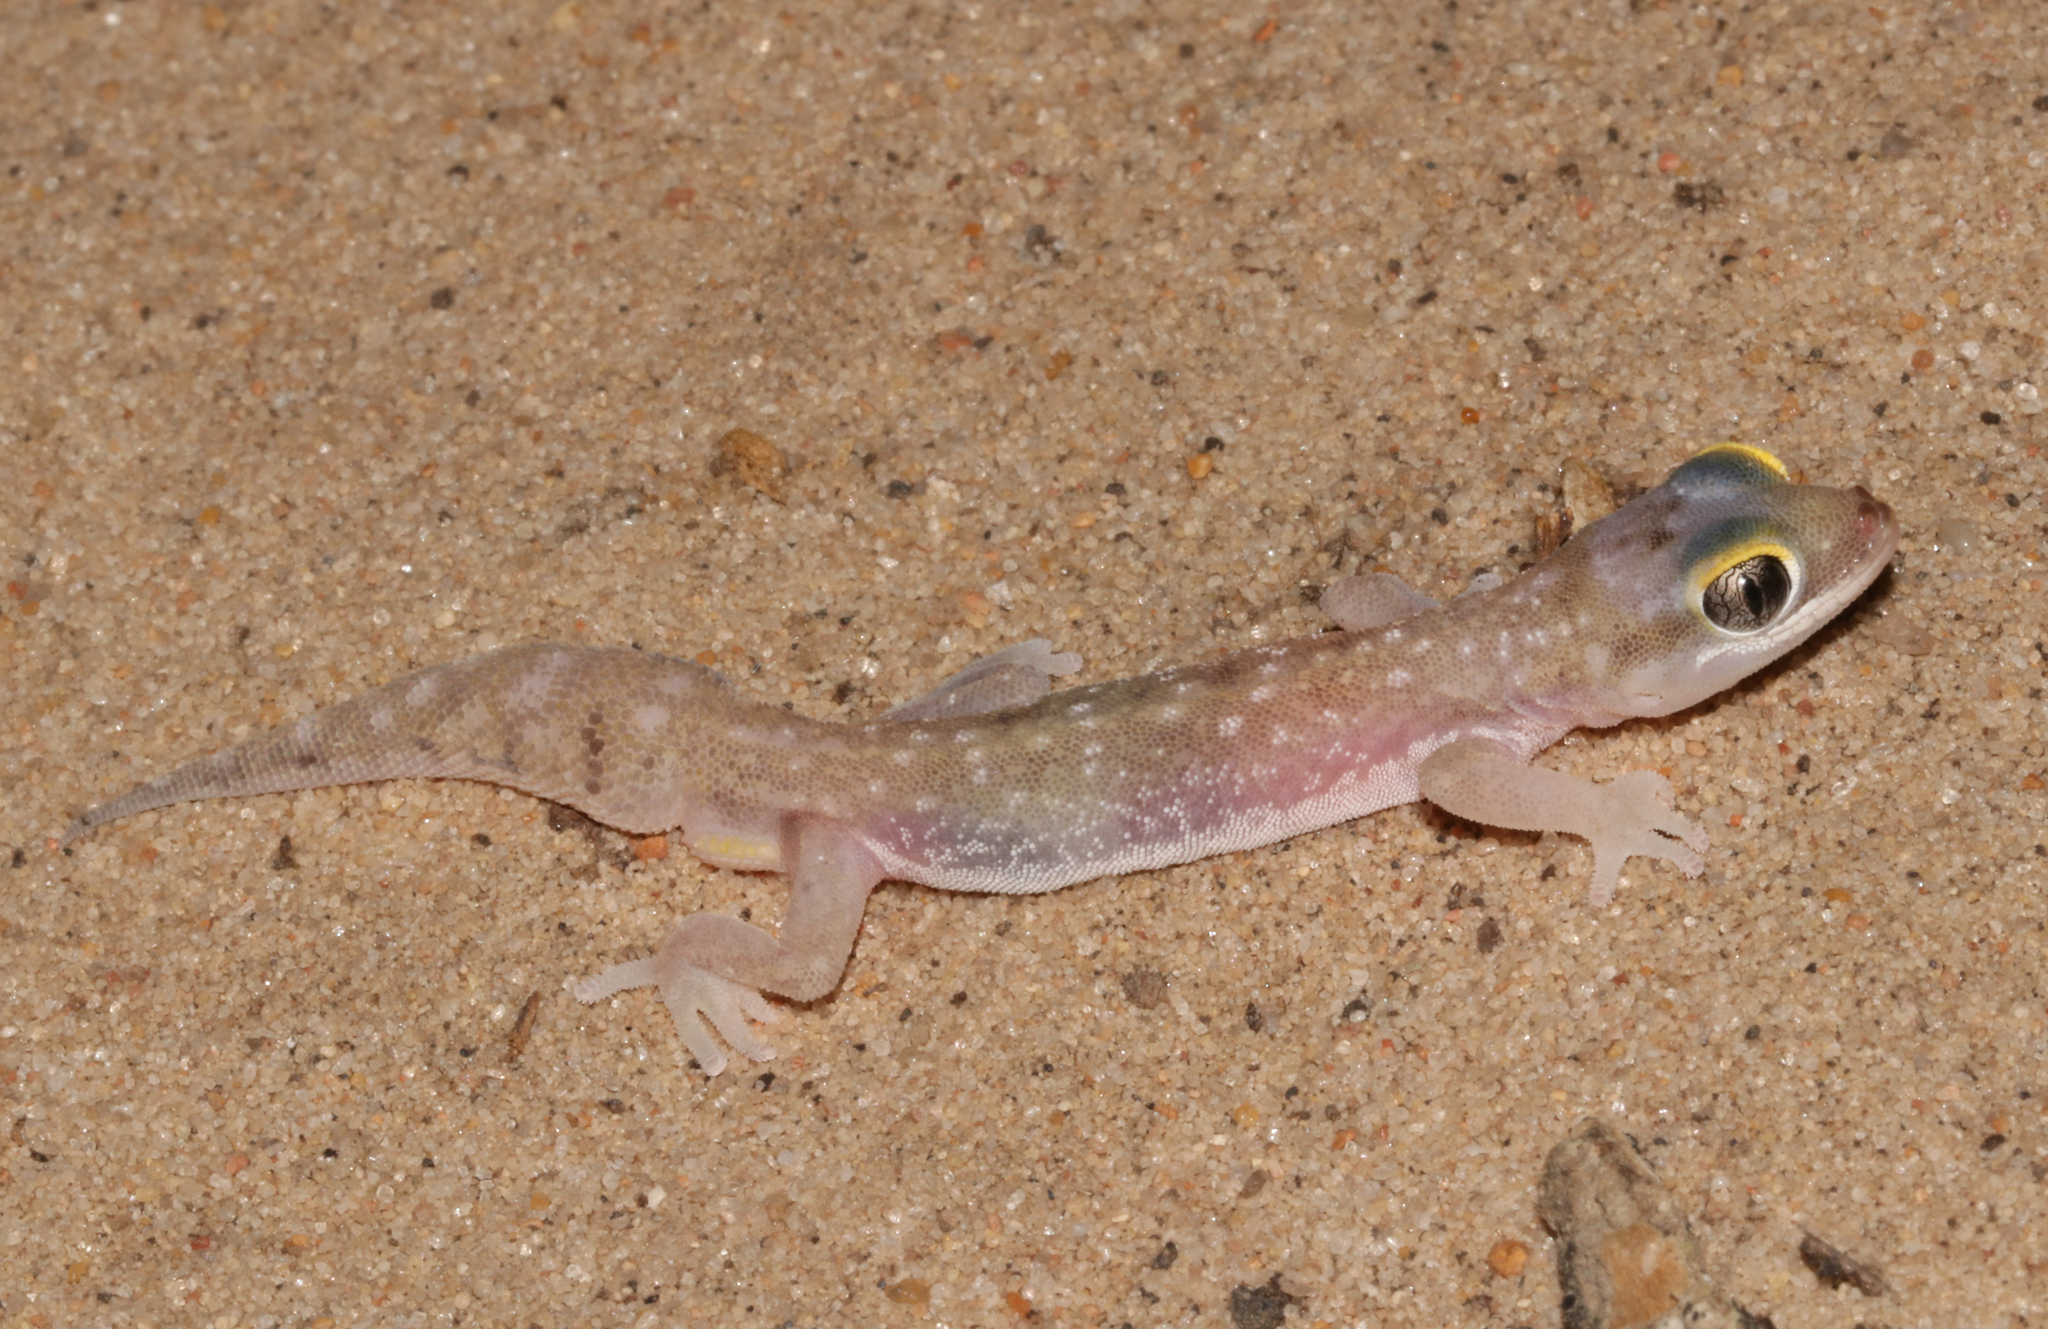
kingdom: Animalia
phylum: Chordata
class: Squamata
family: Gekkonidae
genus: Pachydactylus
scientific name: Pachydactylus austeni
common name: Austen's gecko
